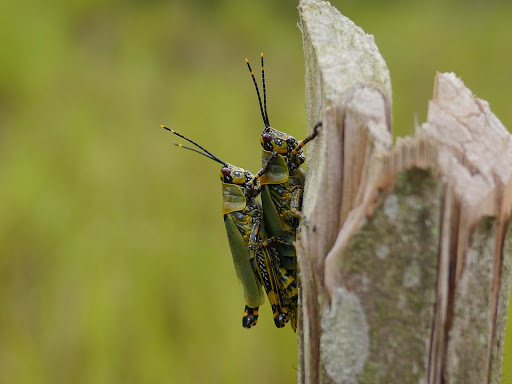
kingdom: Animalia
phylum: Arthropoda
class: Insecta
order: Orthoptera
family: Pyrgomorphidae
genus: Zonocerus
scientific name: Zonocerus variegatus
